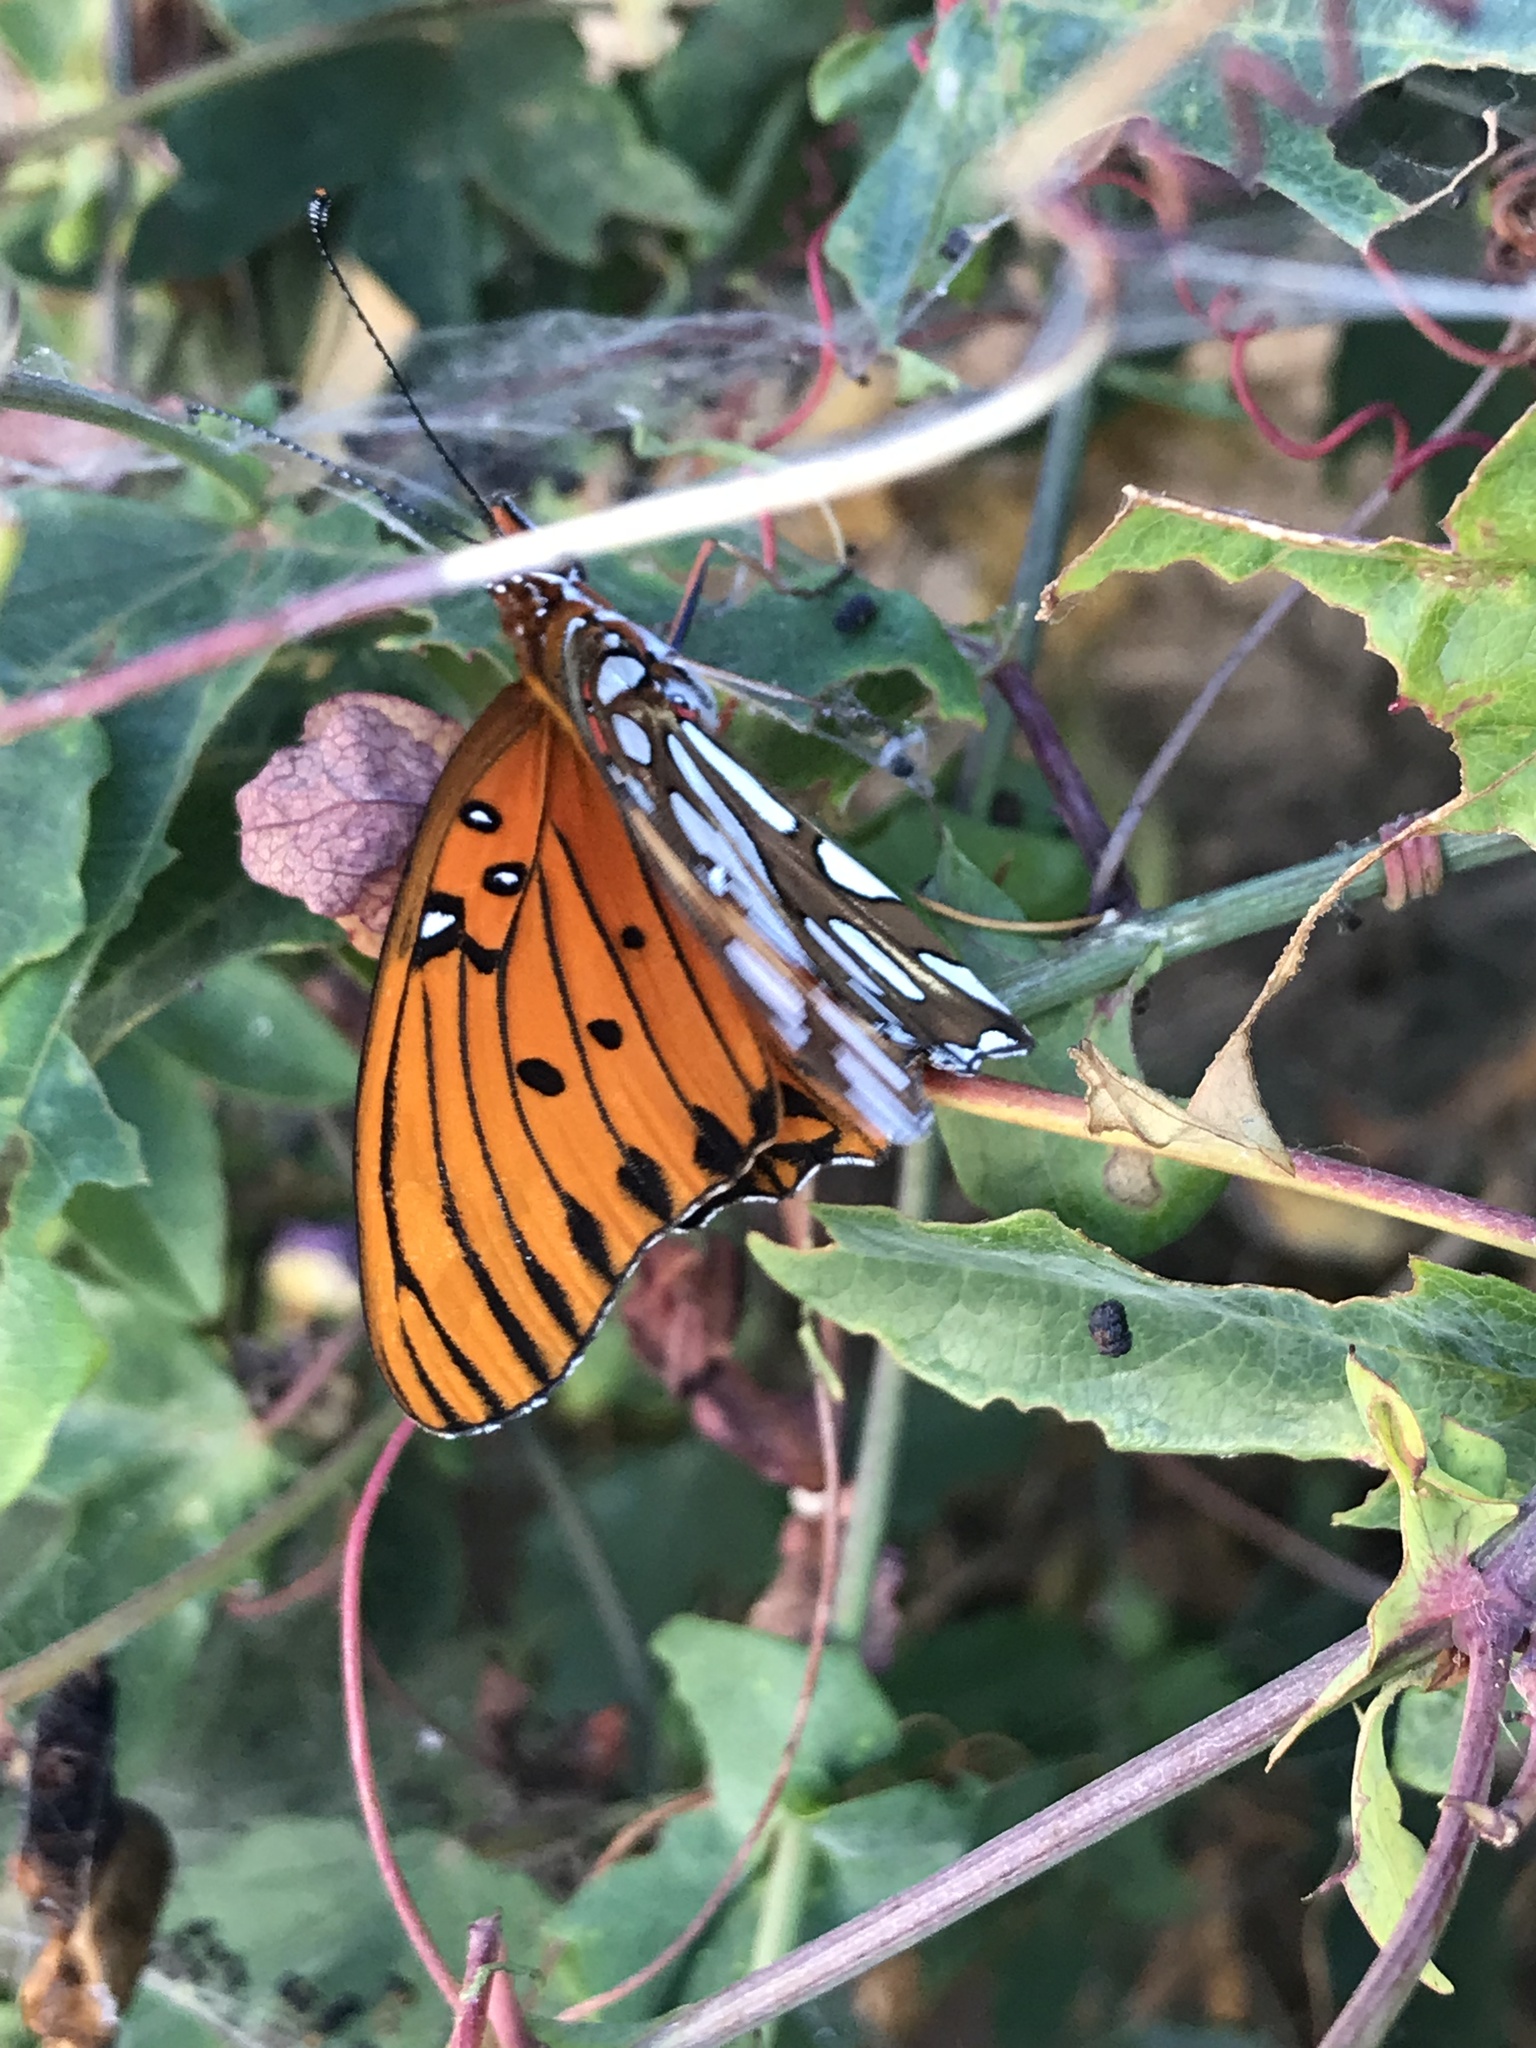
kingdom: Animalia
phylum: Arthropoda
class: Insecta
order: Lepidoptera
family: Nymphalidae
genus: Dione
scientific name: Dione vanillae
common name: Gulf fritillary
